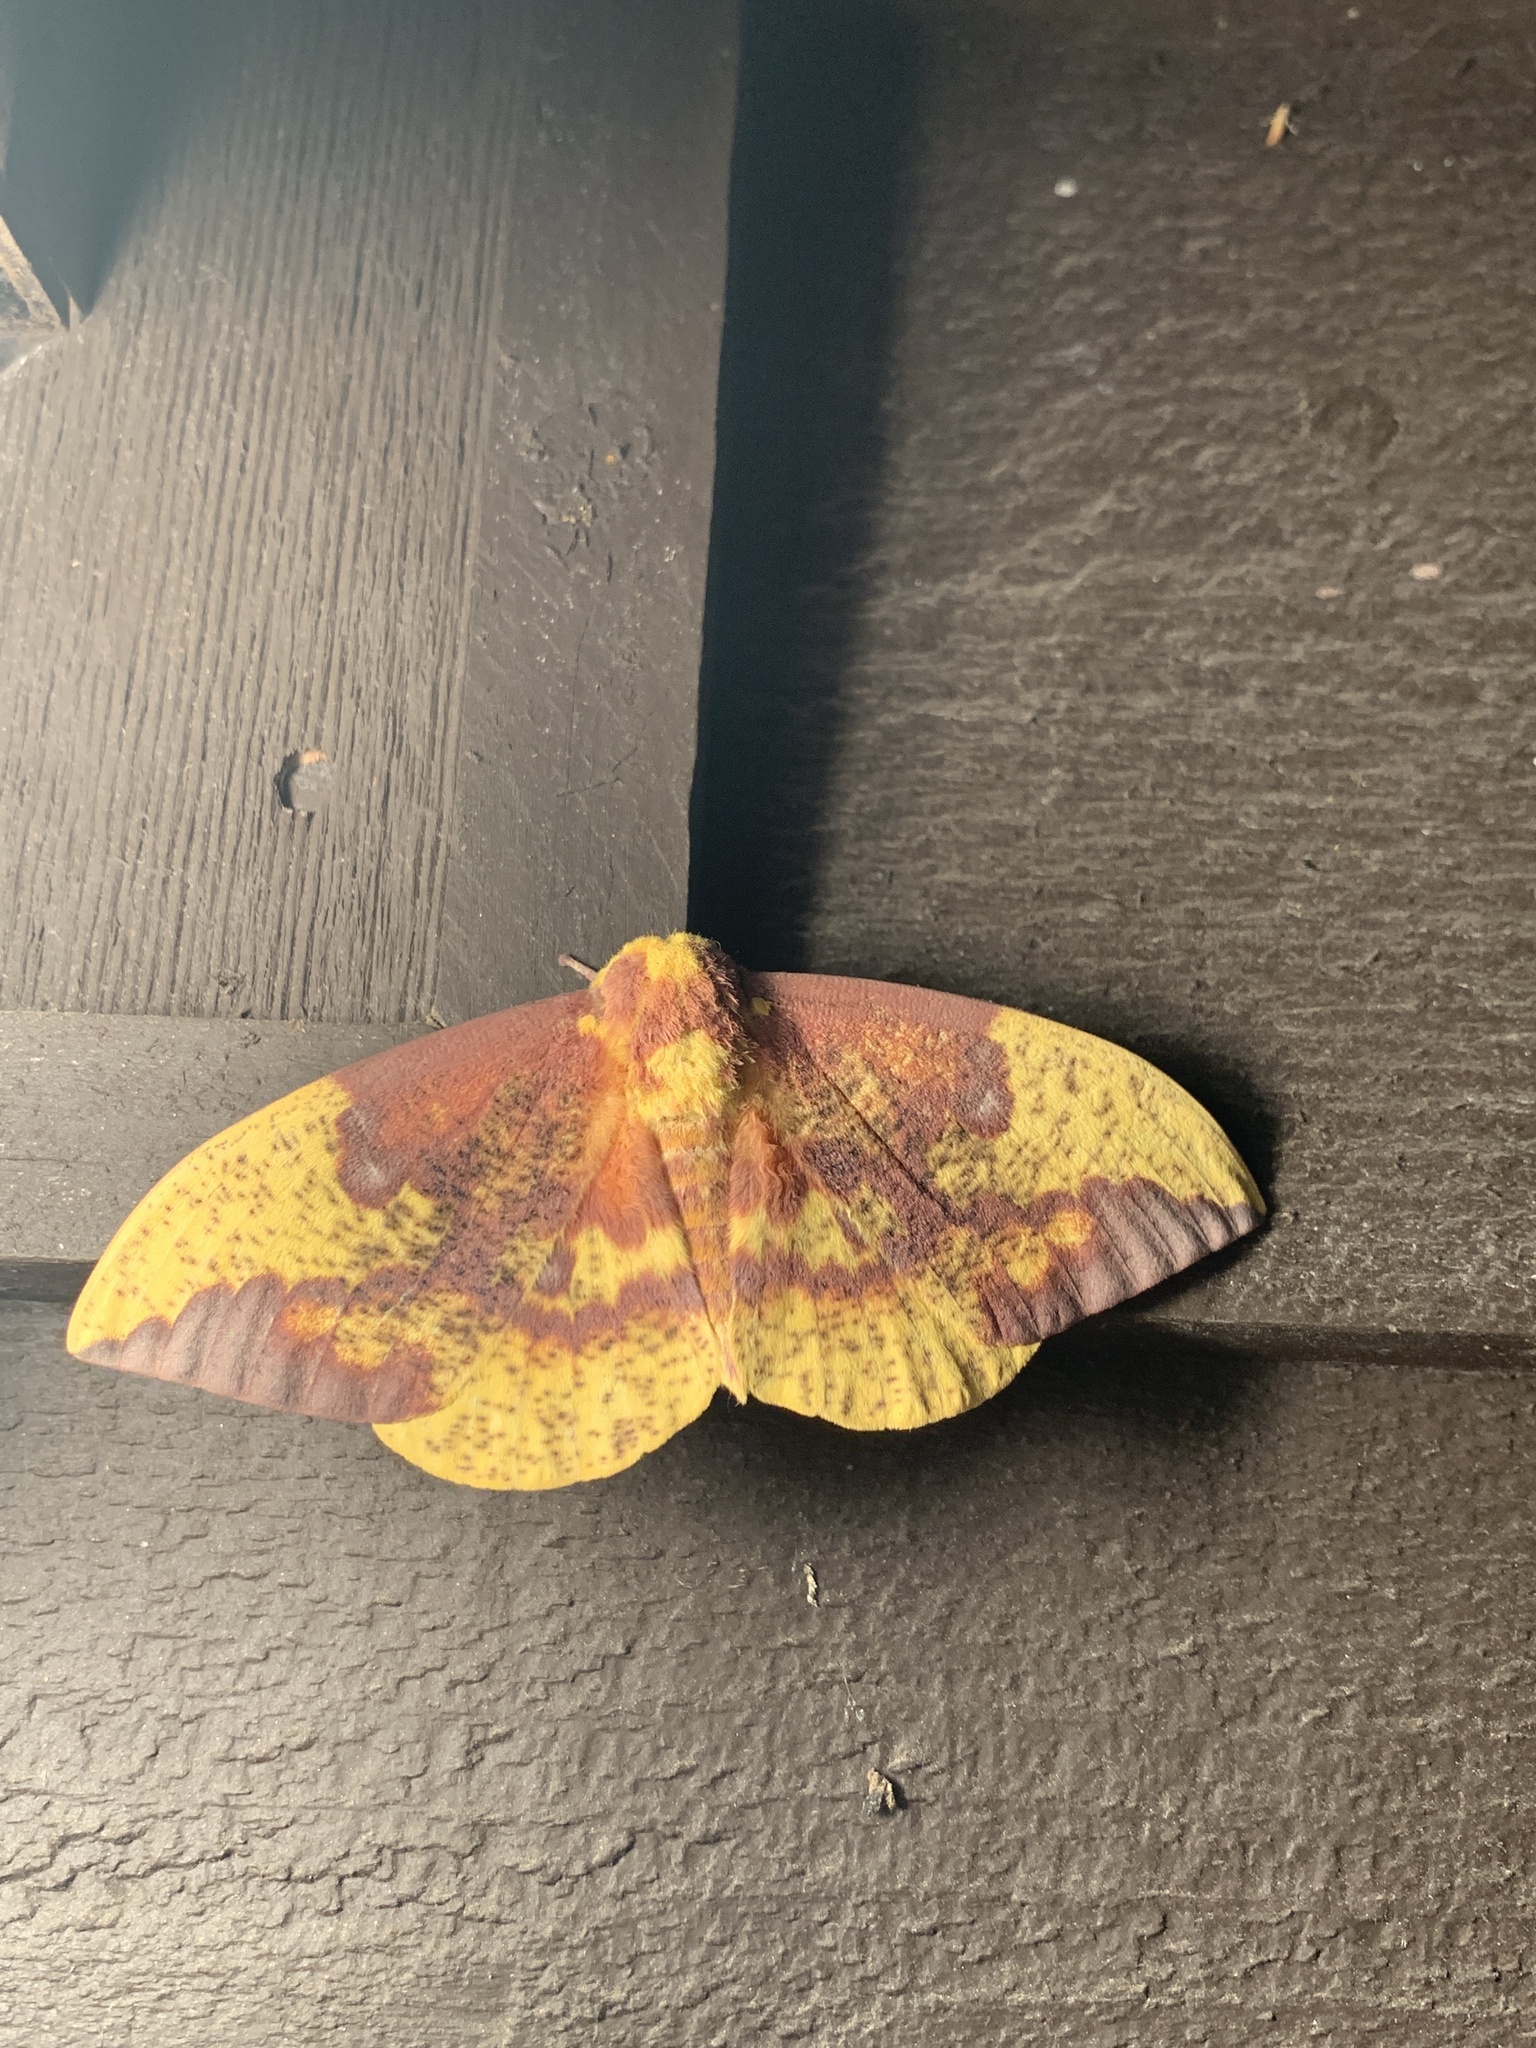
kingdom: Animalia
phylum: Arthropoda
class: Insecta
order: Lepidoptera
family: Saturniidae
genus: Eacles
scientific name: Eacles imperialis
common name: Imperial moth
